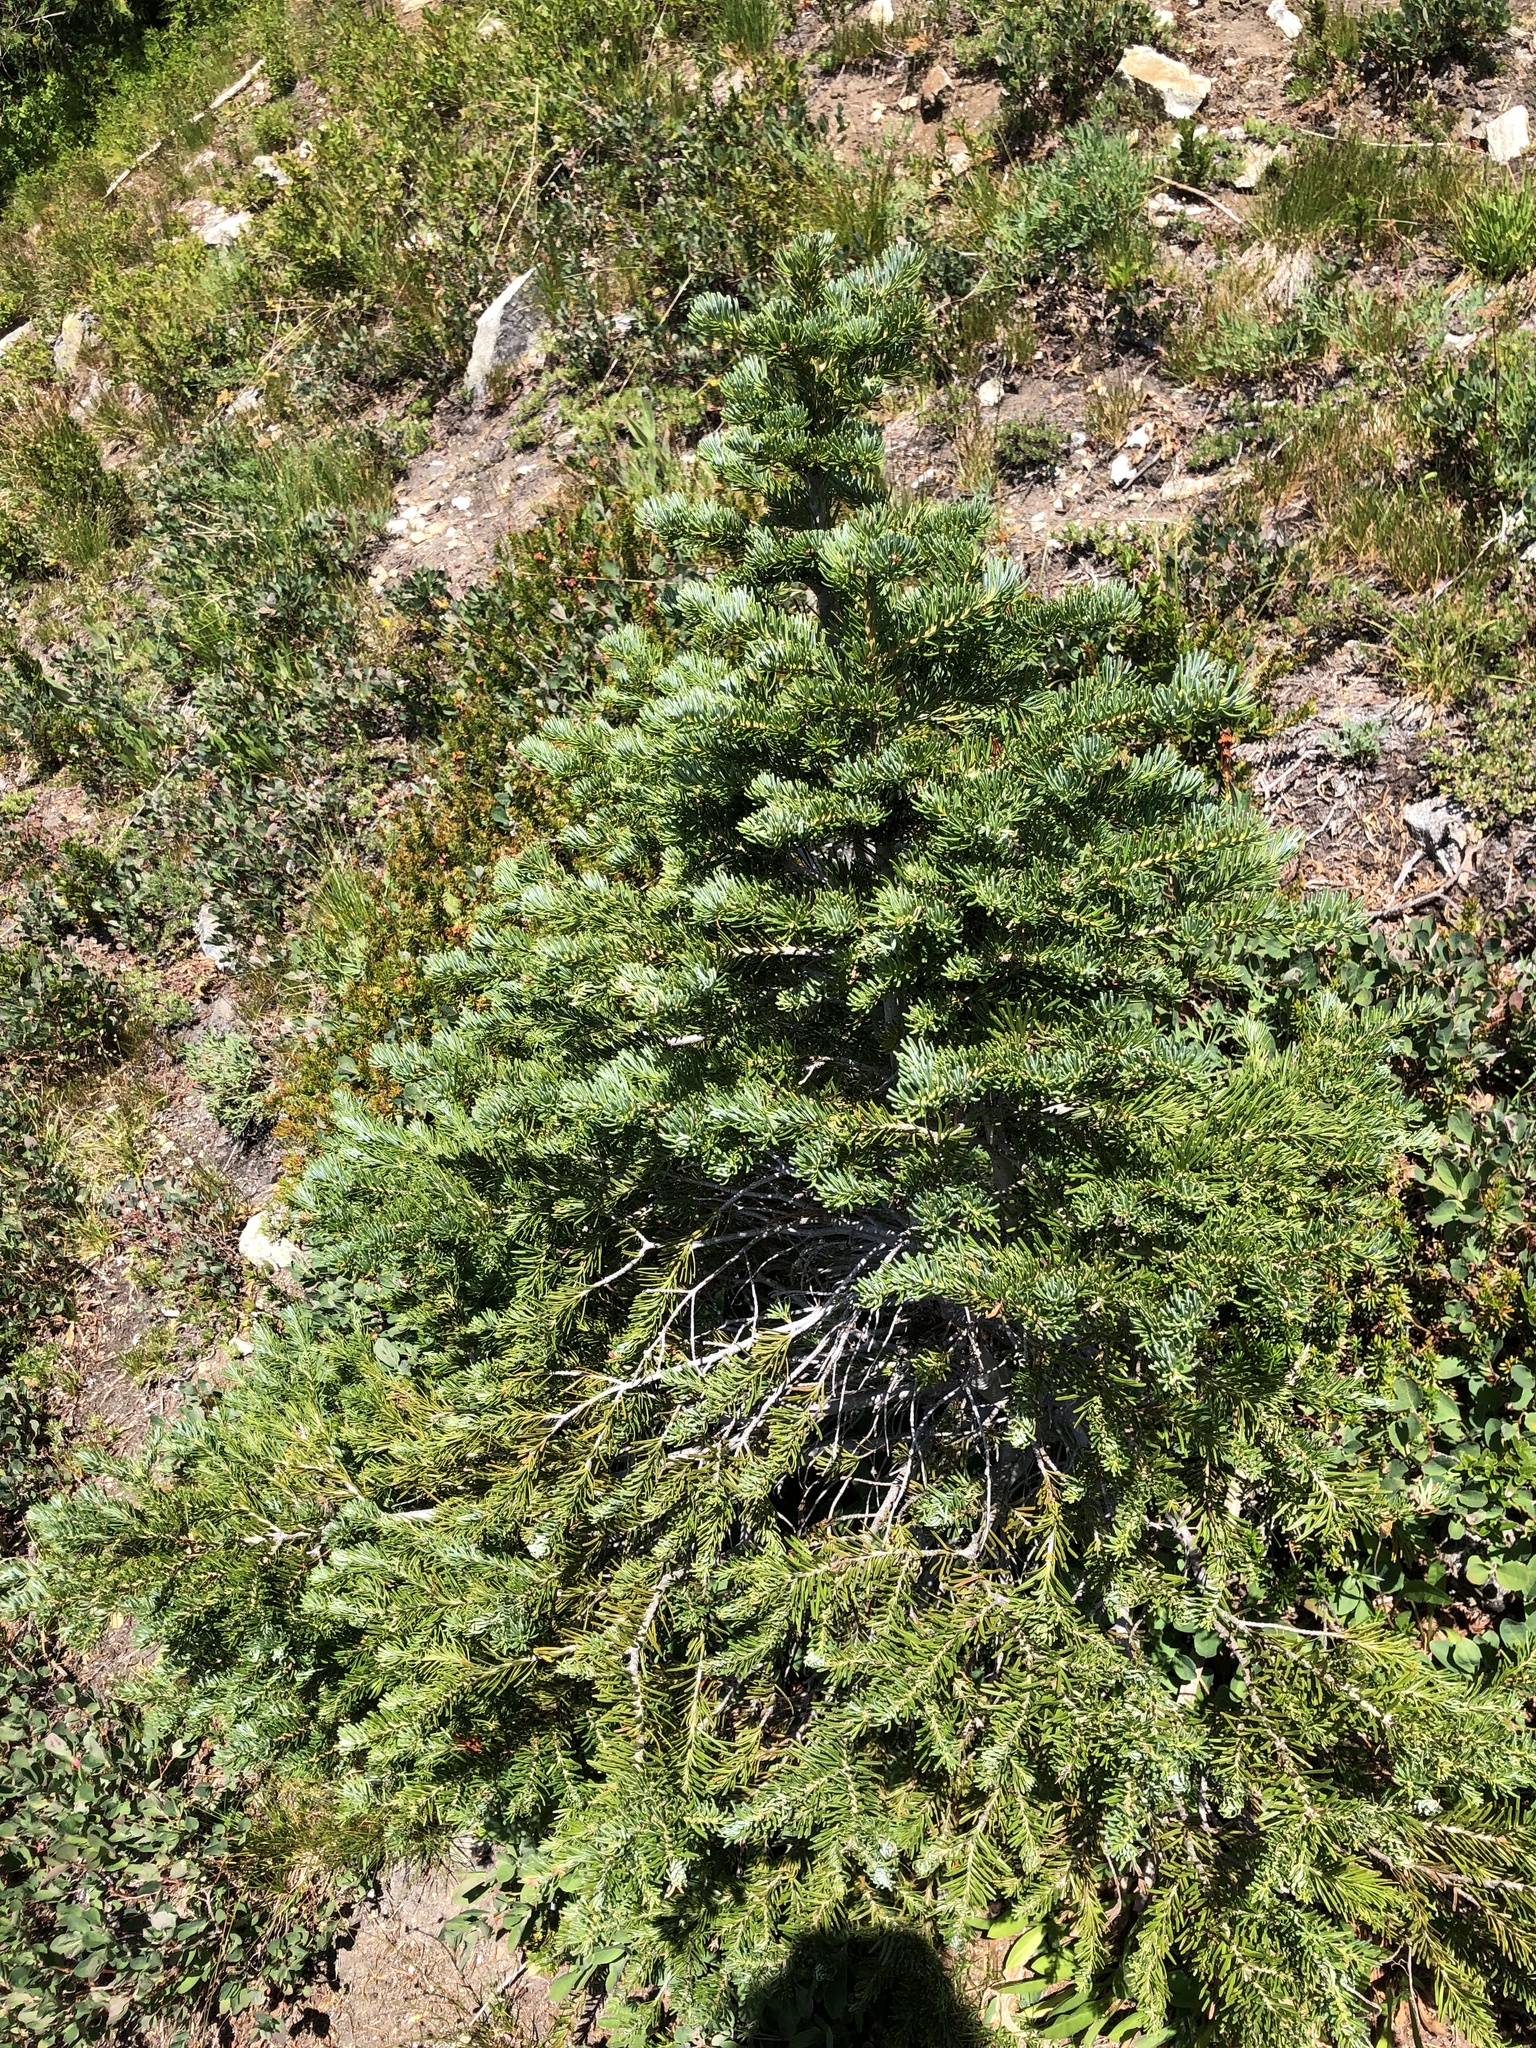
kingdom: Plantae
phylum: Tracheophyta
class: Pinopsida
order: Pinales
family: Pinaceae
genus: Abies
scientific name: Abies lasiocarpa
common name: Subalpine fir
